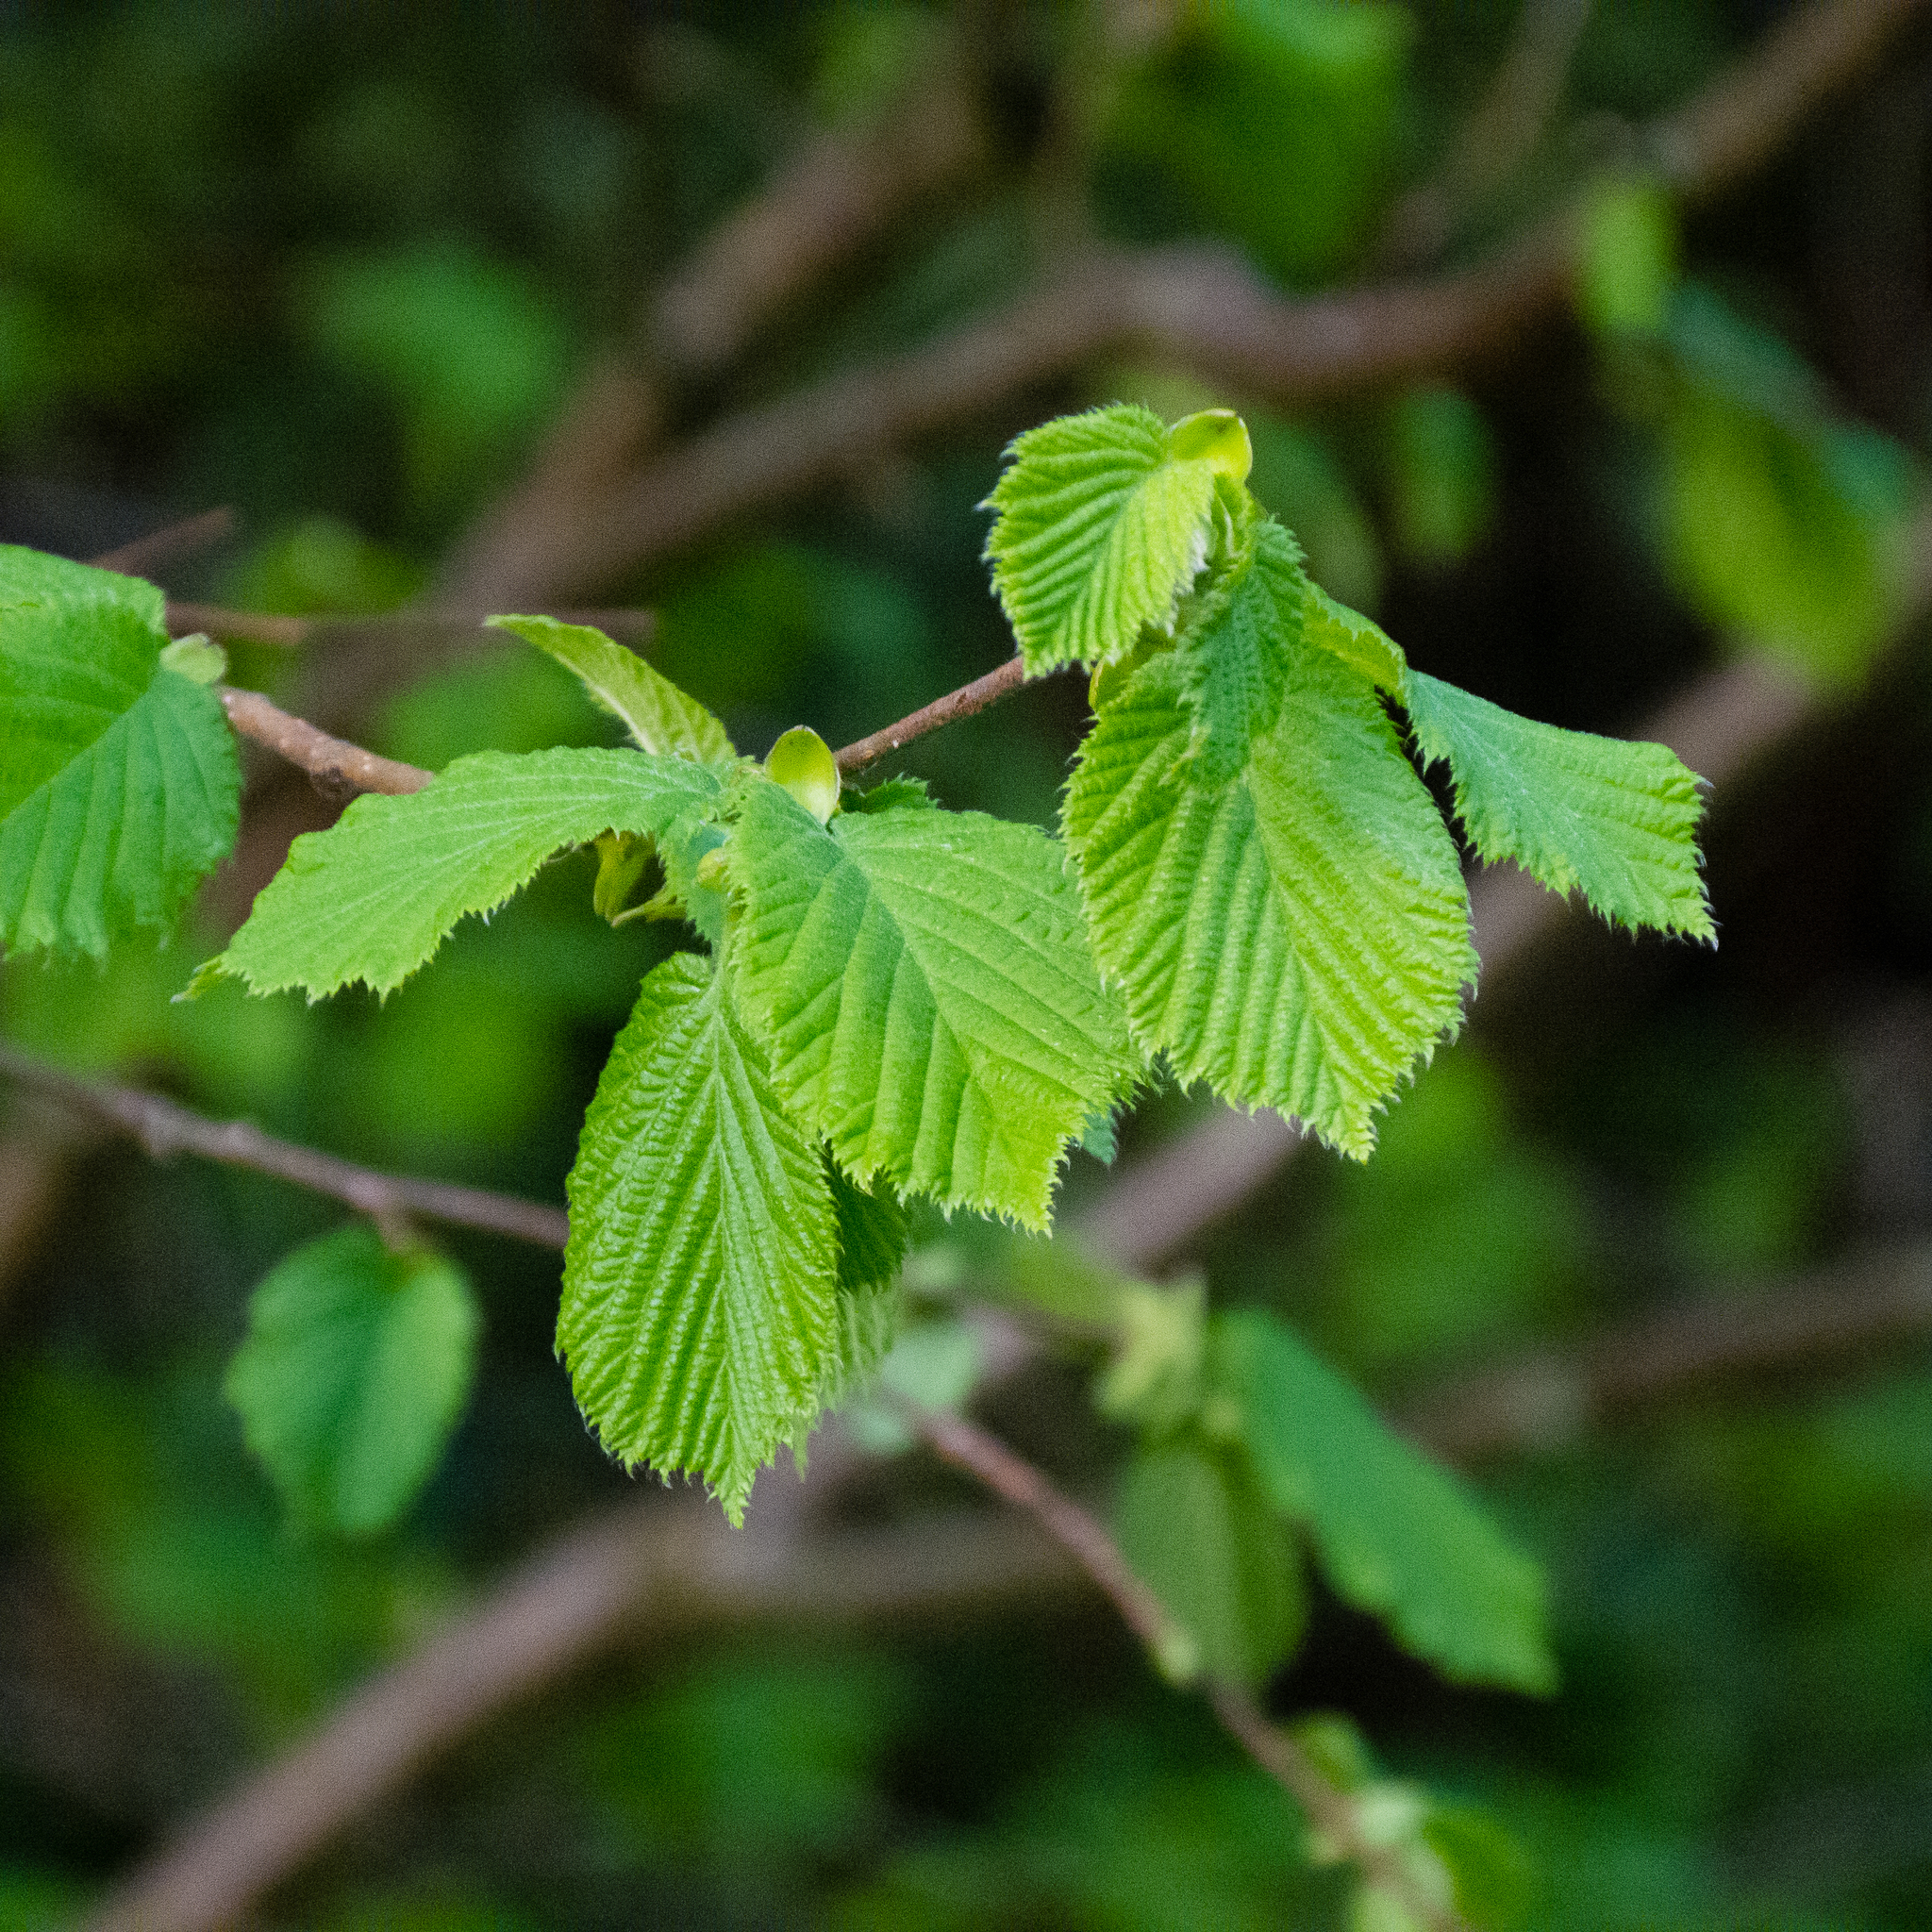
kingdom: Plantae
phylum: Tracheophyta
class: Magnoliopsida
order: Fagales
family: Betulaceae
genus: Corylus
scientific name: Corylus avellana
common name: European hazel
